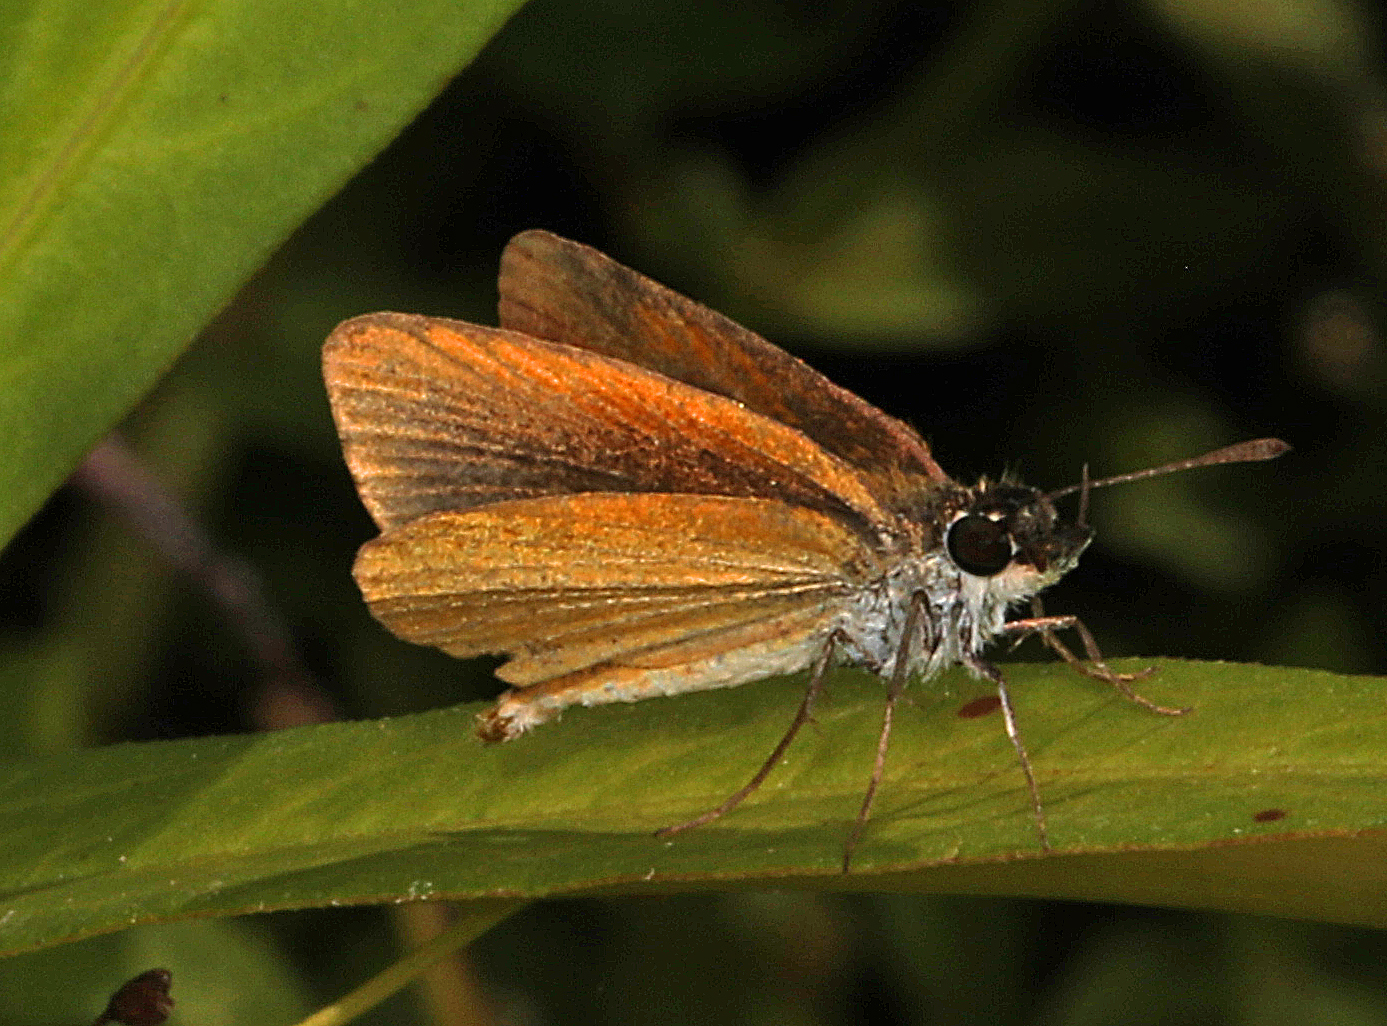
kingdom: Animalia
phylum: Arthropoda
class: Insecta
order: Lepidoptera
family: Hesperiidae
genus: Ancyloxypha
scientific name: Ancyloxypha numitor
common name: Least skipper
